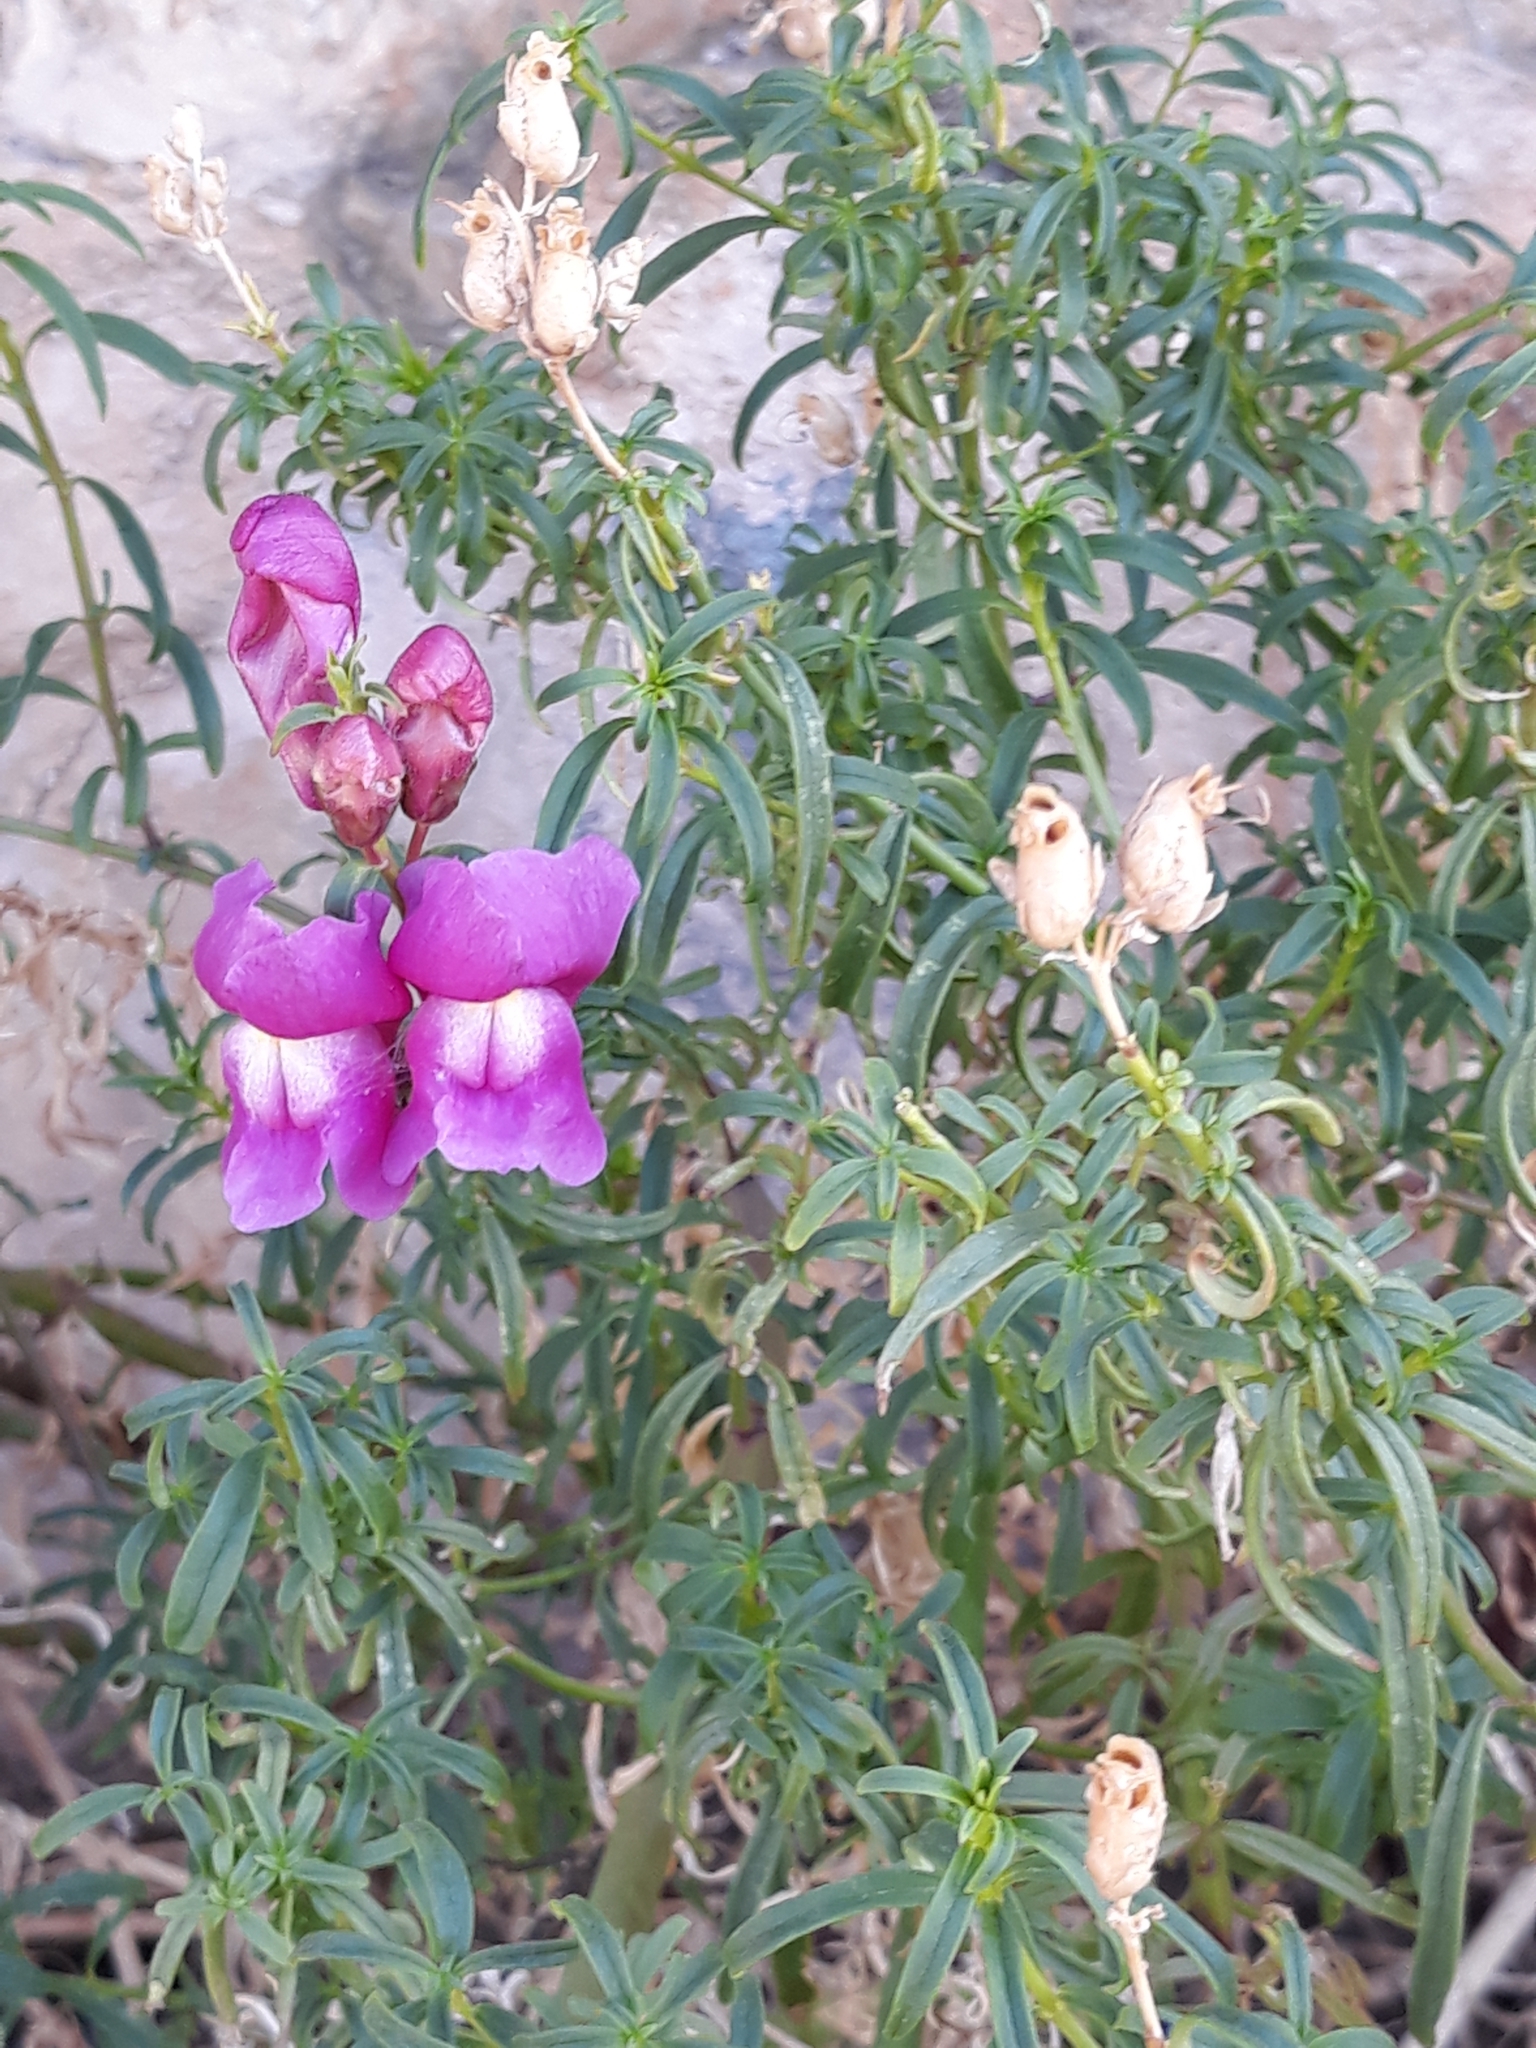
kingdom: Plantae
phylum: Tracheophyta
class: Magnoliopsida
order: Lamiales
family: Plantaginaceae
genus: Antirrhinum
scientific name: Antirrhinum tortuosum
